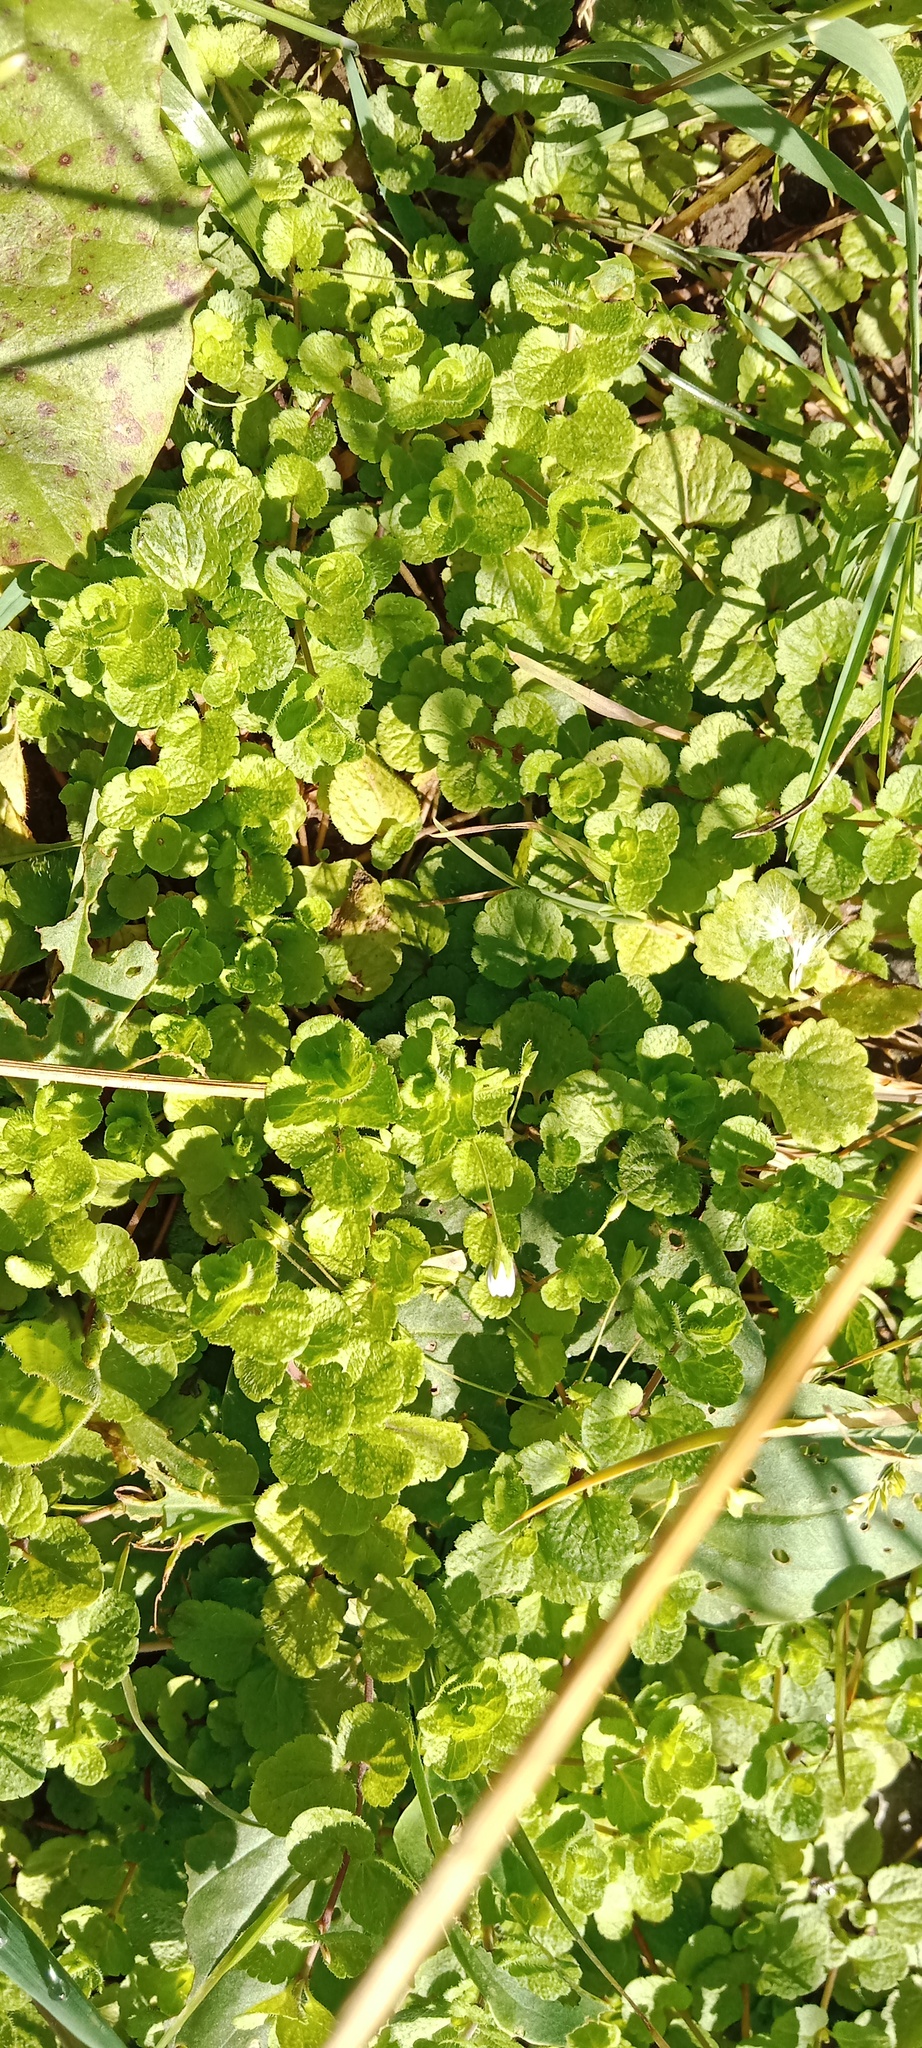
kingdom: Plantae
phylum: Tracheophyta
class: Magnoliopsida
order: Lamiales
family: Plantaginaceae
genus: Veronica
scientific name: Veronica filiformis
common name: Slender speedwell
